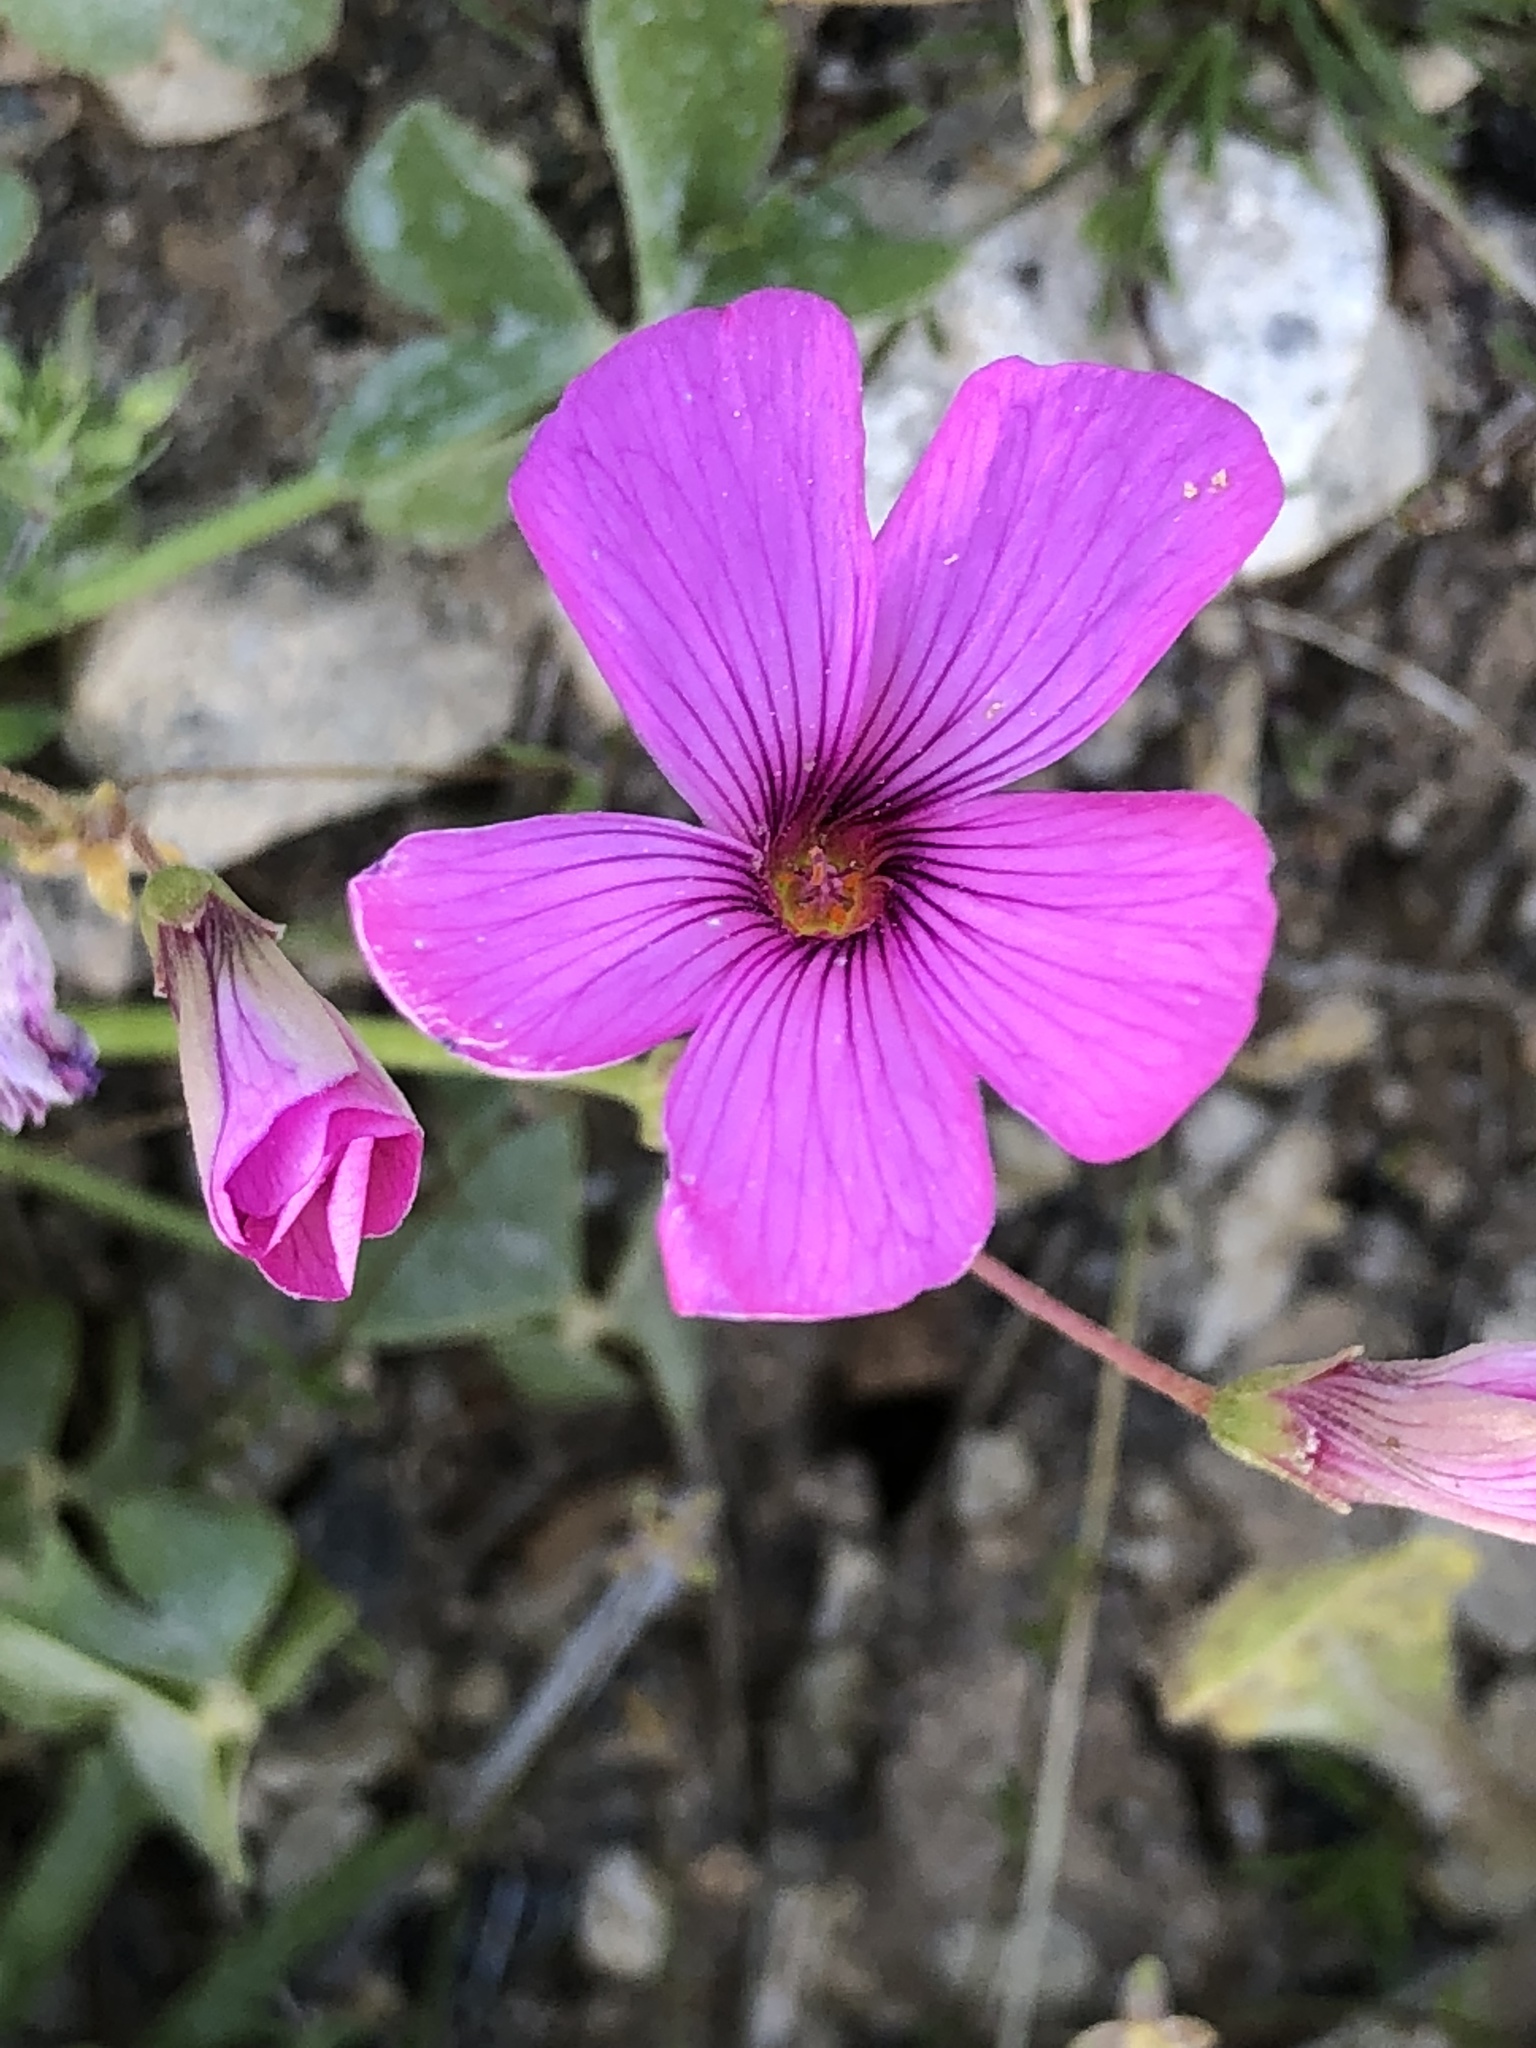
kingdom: Plantae
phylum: Tracheophyta
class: Magnoliopsida
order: Oxalidales
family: Oxalidaceae
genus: Oxalis
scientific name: Oxalis articulata
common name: Pink-sorrel
